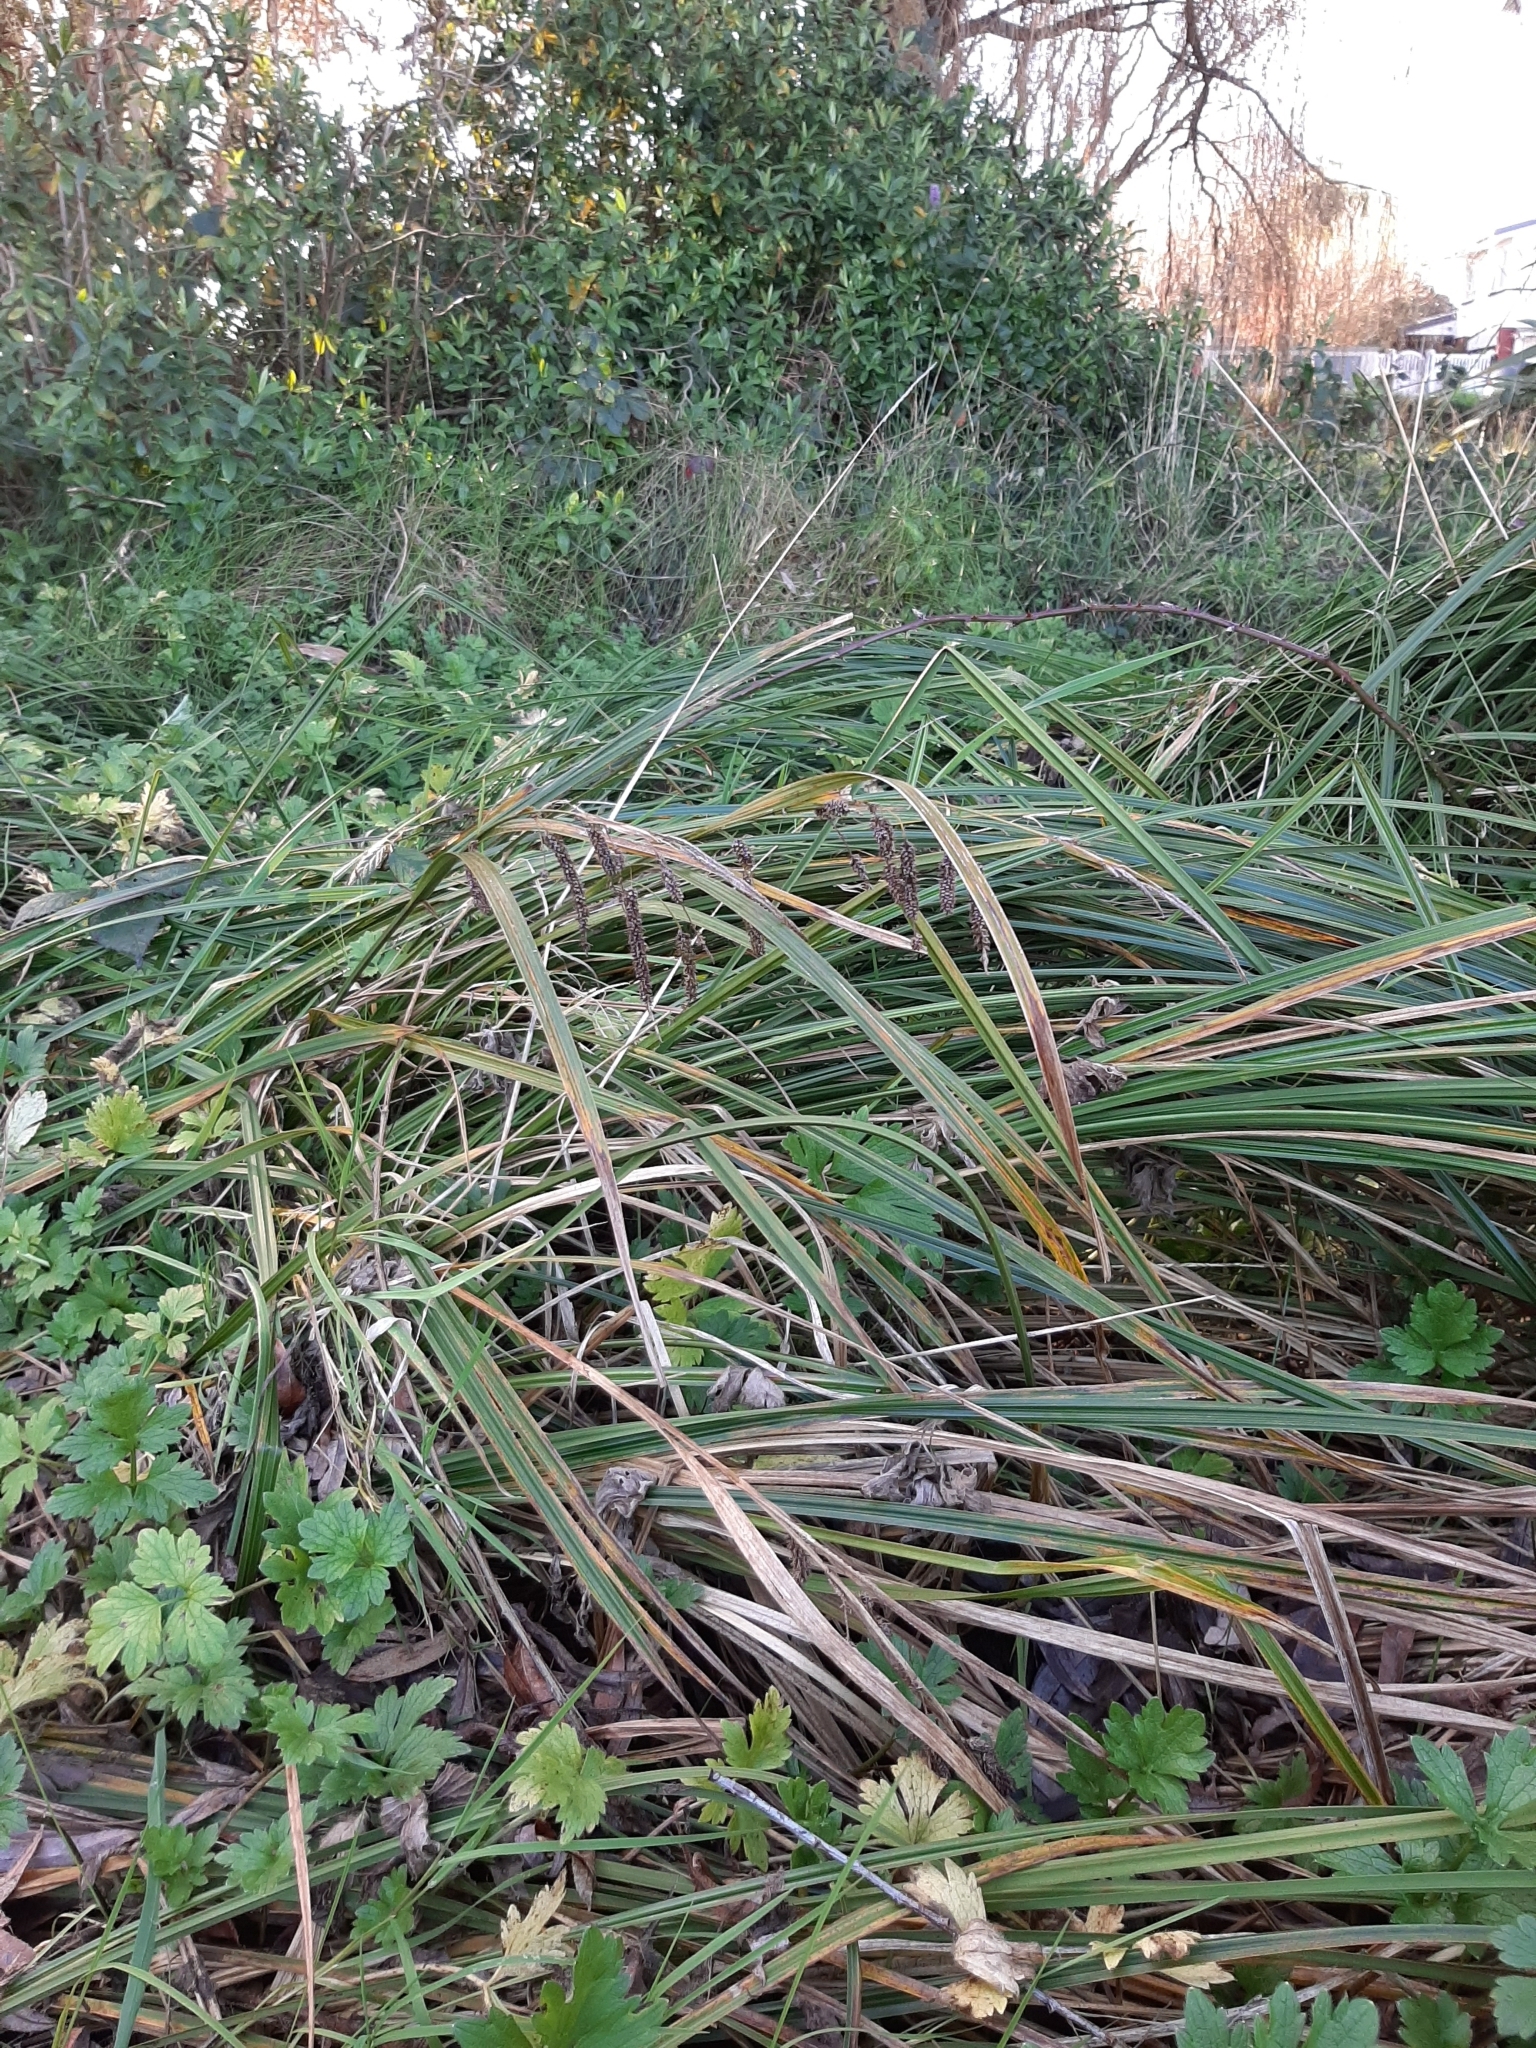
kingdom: Plantae
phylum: Tracheophyta
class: Liliopsida
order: Poales
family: Cyperaceae
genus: Carex
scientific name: Carex geminata
